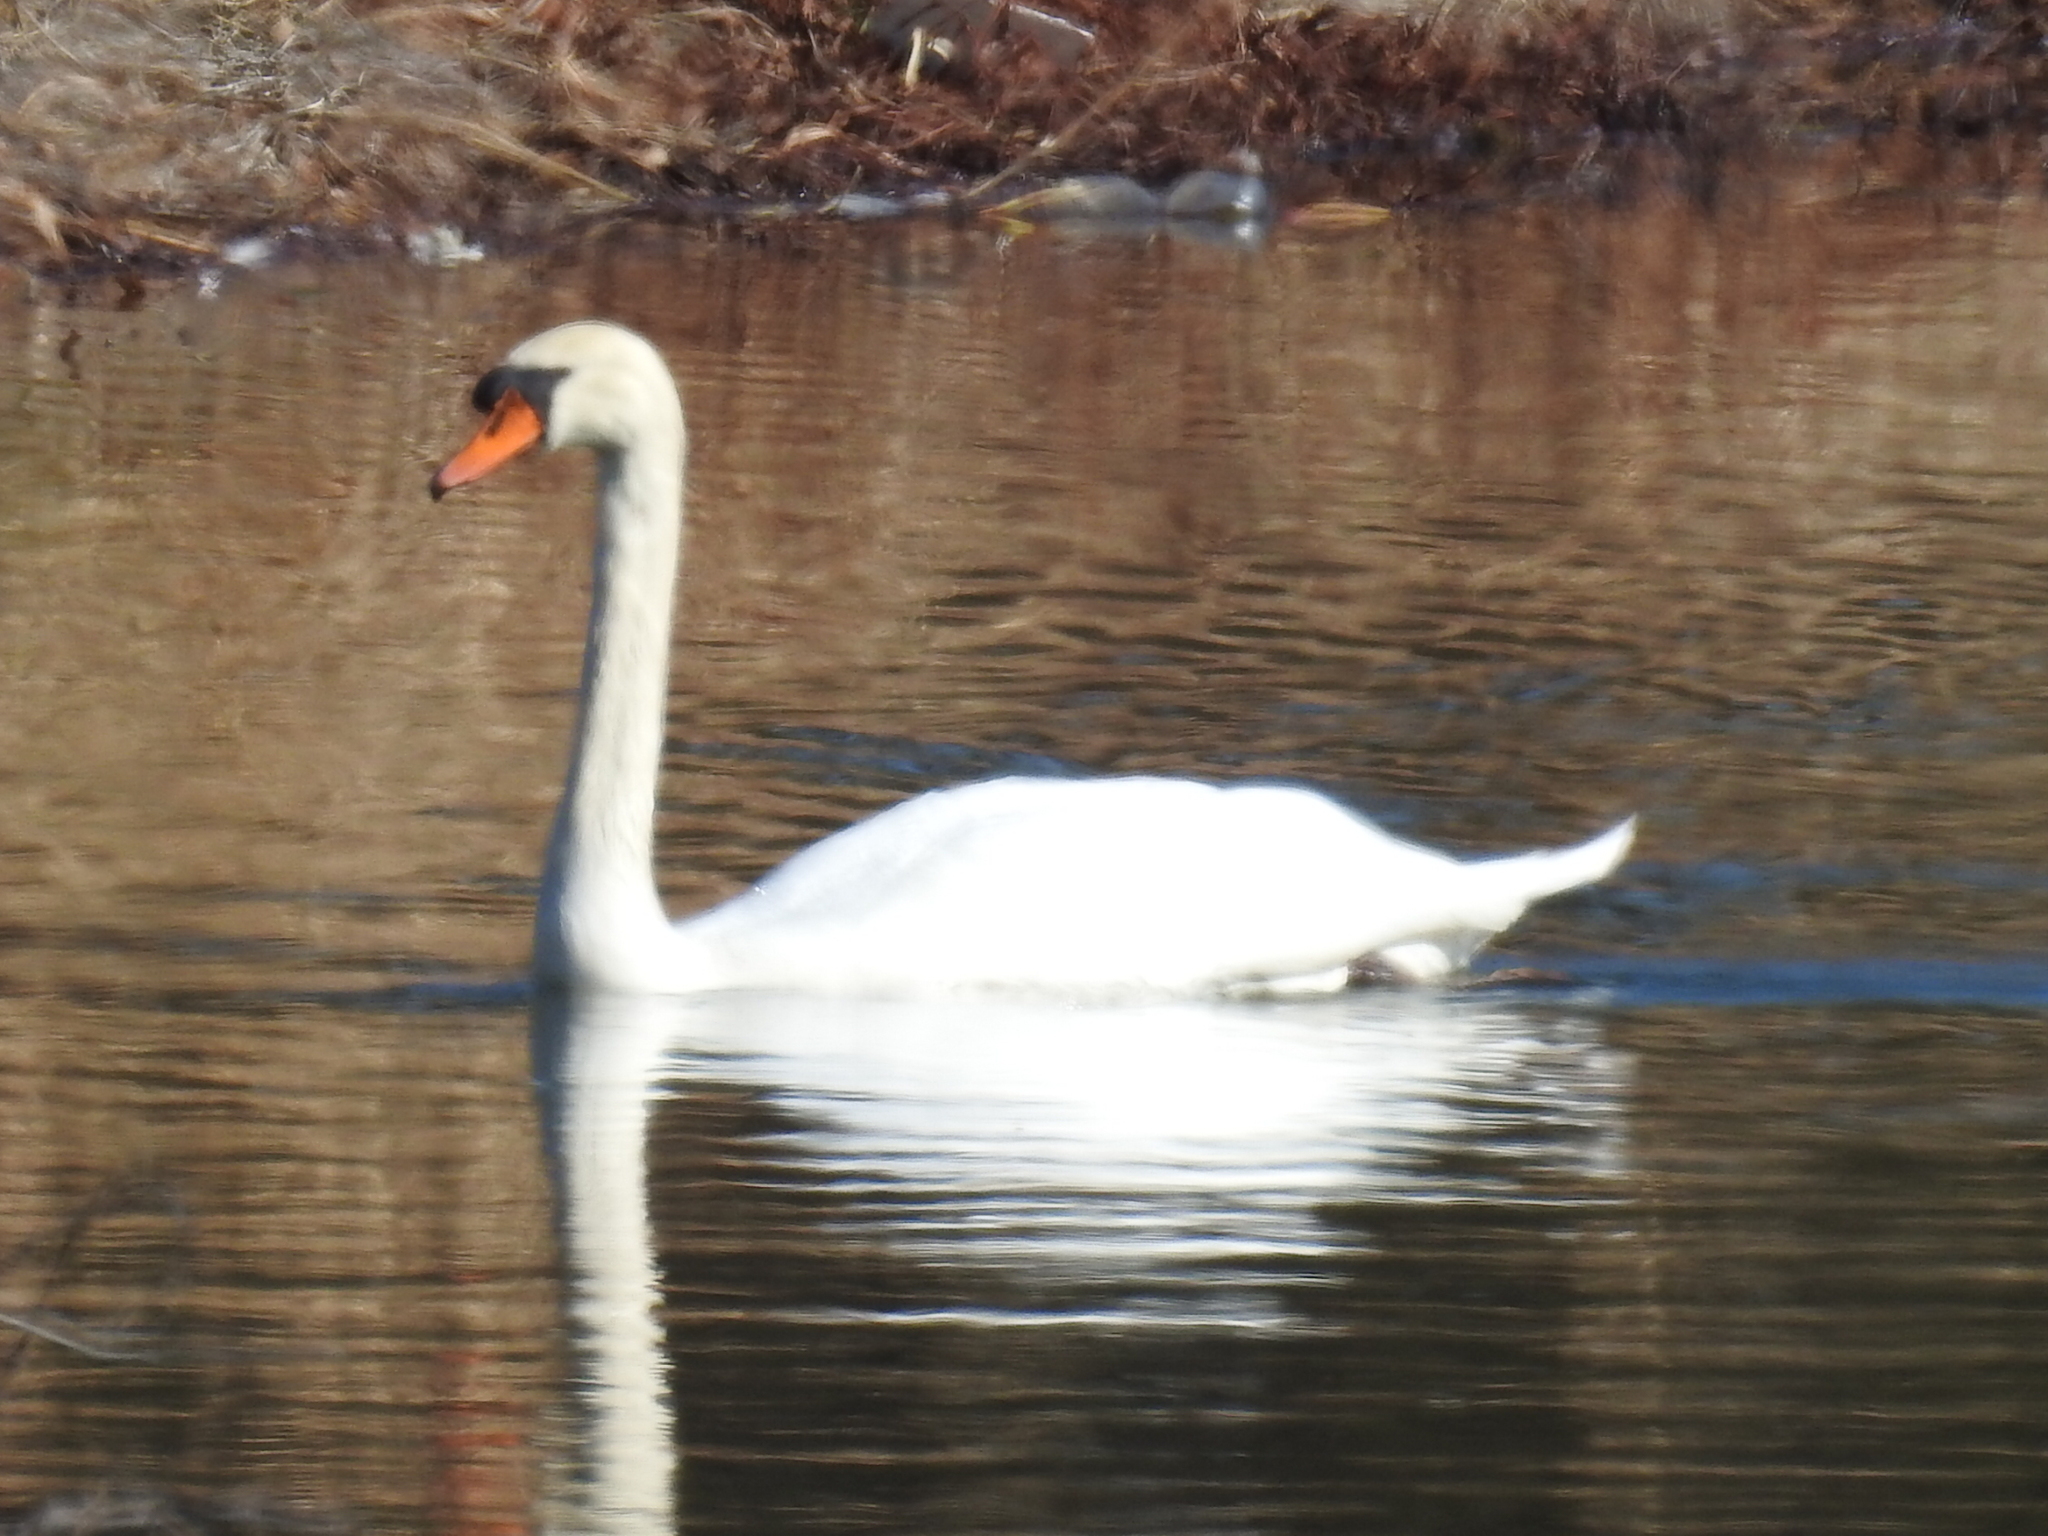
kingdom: Animalia
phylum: Chordata
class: Aves
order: Anseriformes
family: Anatidae
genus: Cygnus
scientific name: Cygnus olor
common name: Mute swan
